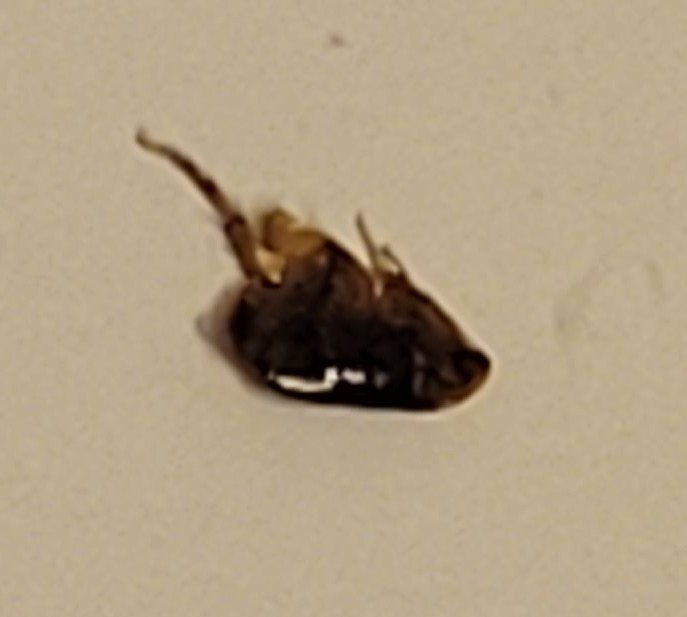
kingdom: Animalia
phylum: Arthropoda
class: Insecta
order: Siphonaptera
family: Pulicidae
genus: Ctenocephalides
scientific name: Ctenocephalides felis
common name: Cat flea
